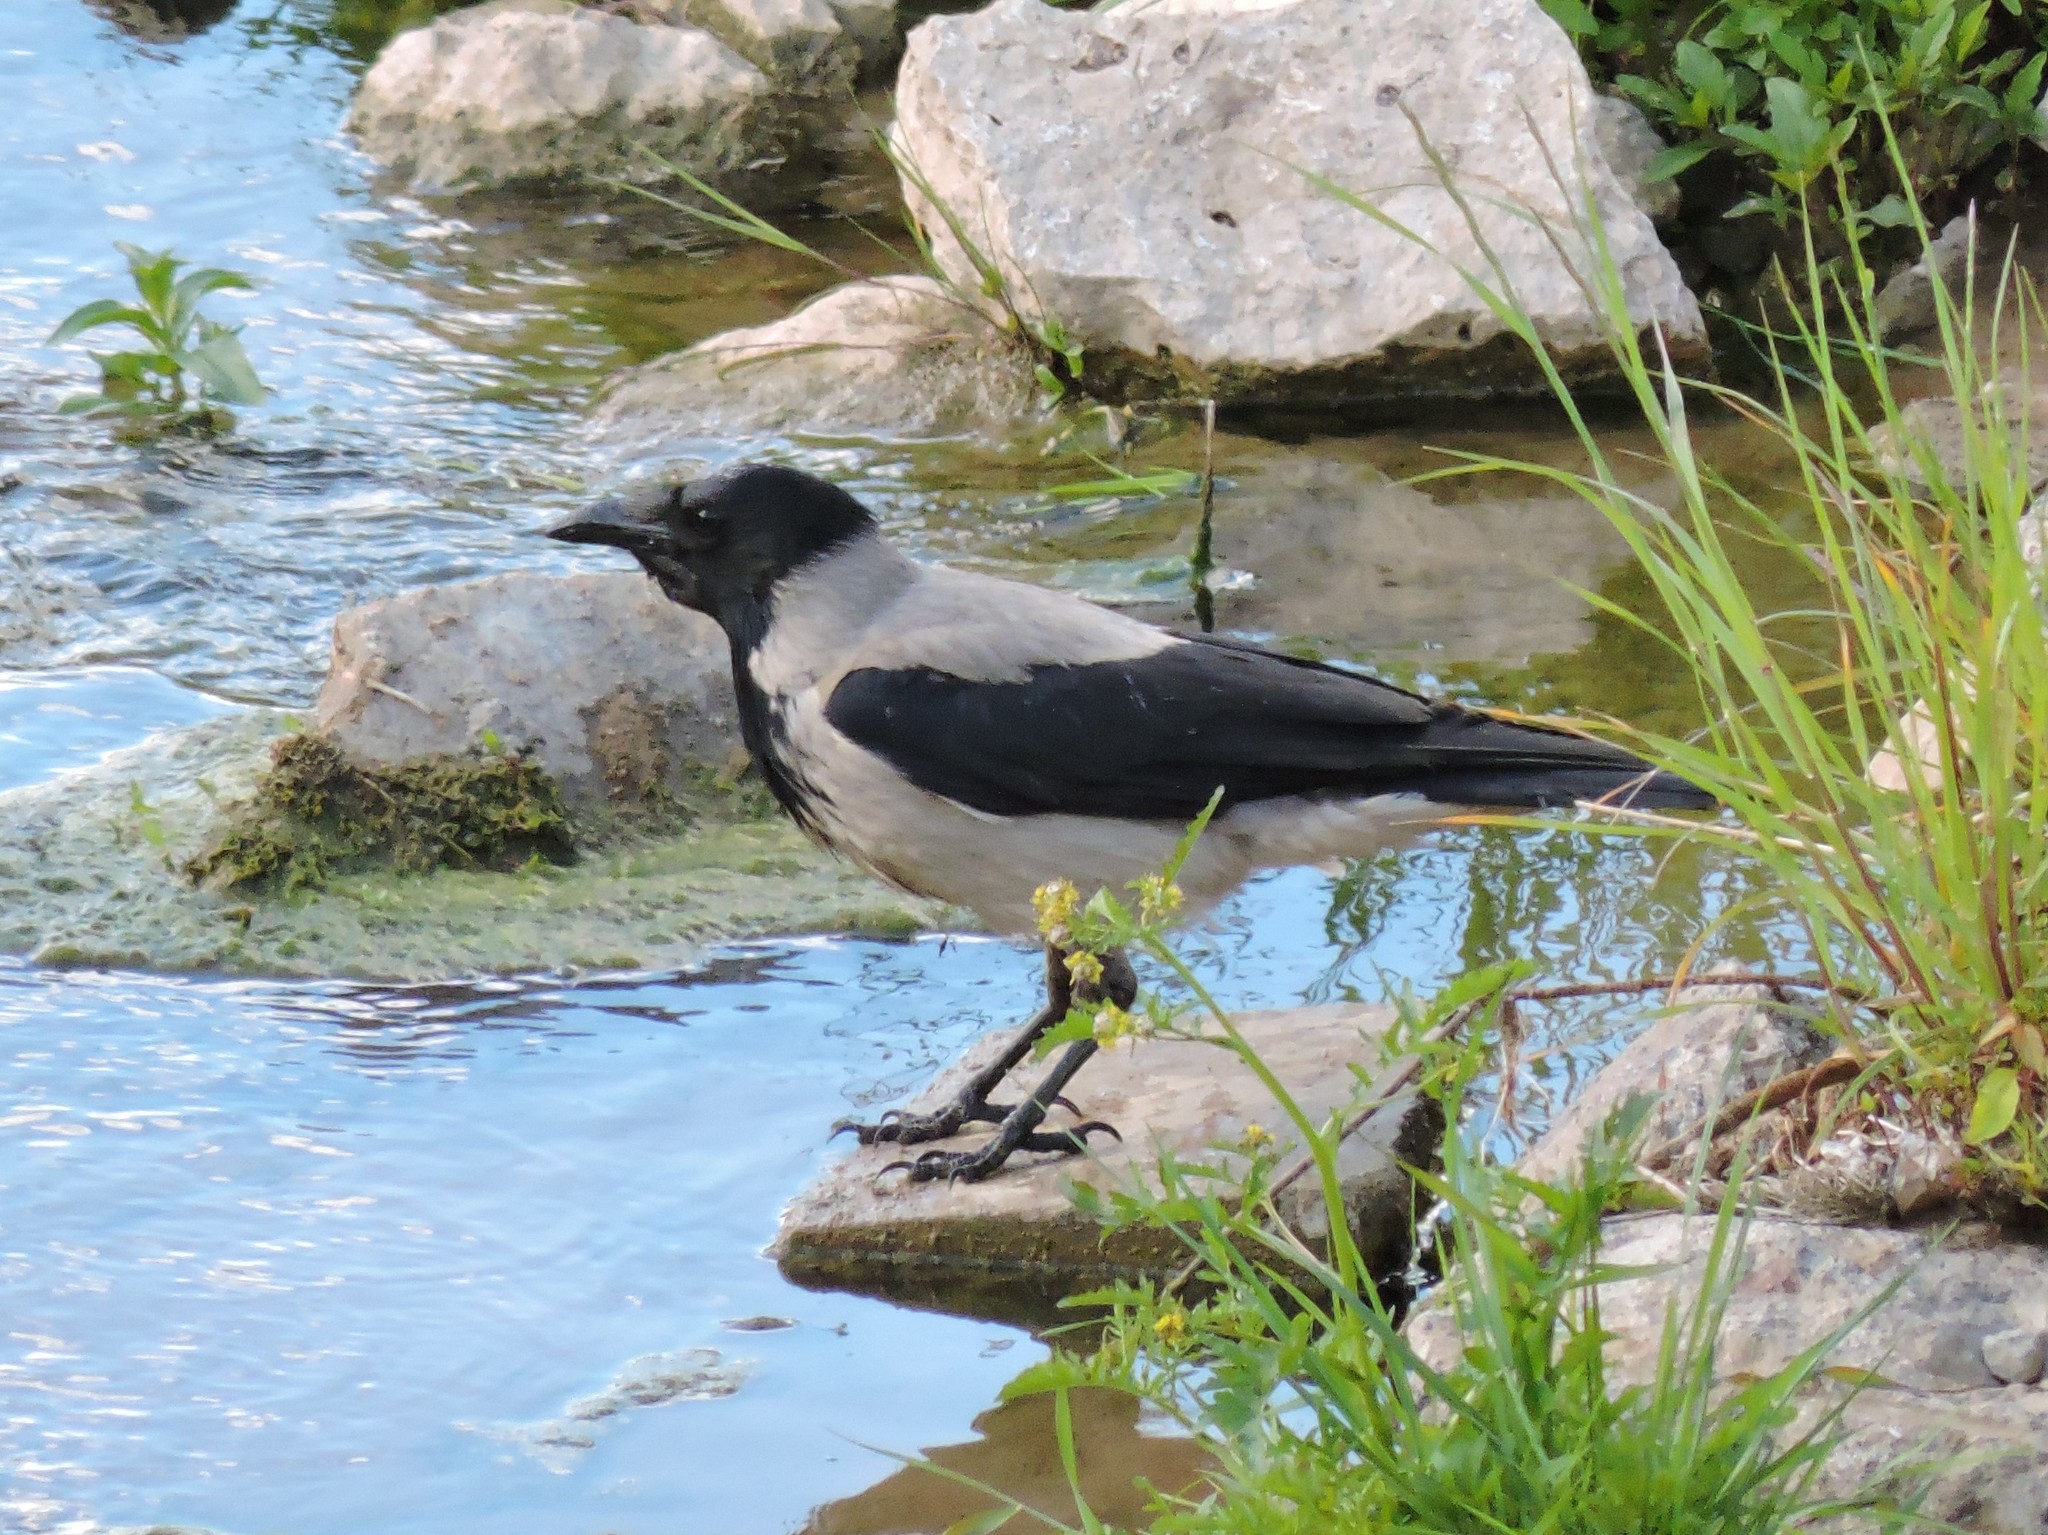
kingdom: Animalia
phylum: Chordata
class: Aves
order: Passeriformes
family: Corvidae
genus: Corvus
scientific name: Corvus cornix
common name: Hooded crow
